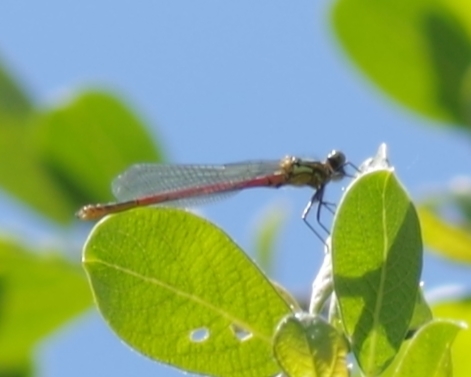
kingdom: Animalia
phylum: Arthropoda
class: Insecta
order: Odonata
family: Coenagrionidae
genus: Pyrrhosoma
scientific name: Pyrrhosoma nymphula
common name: Large red damsel
